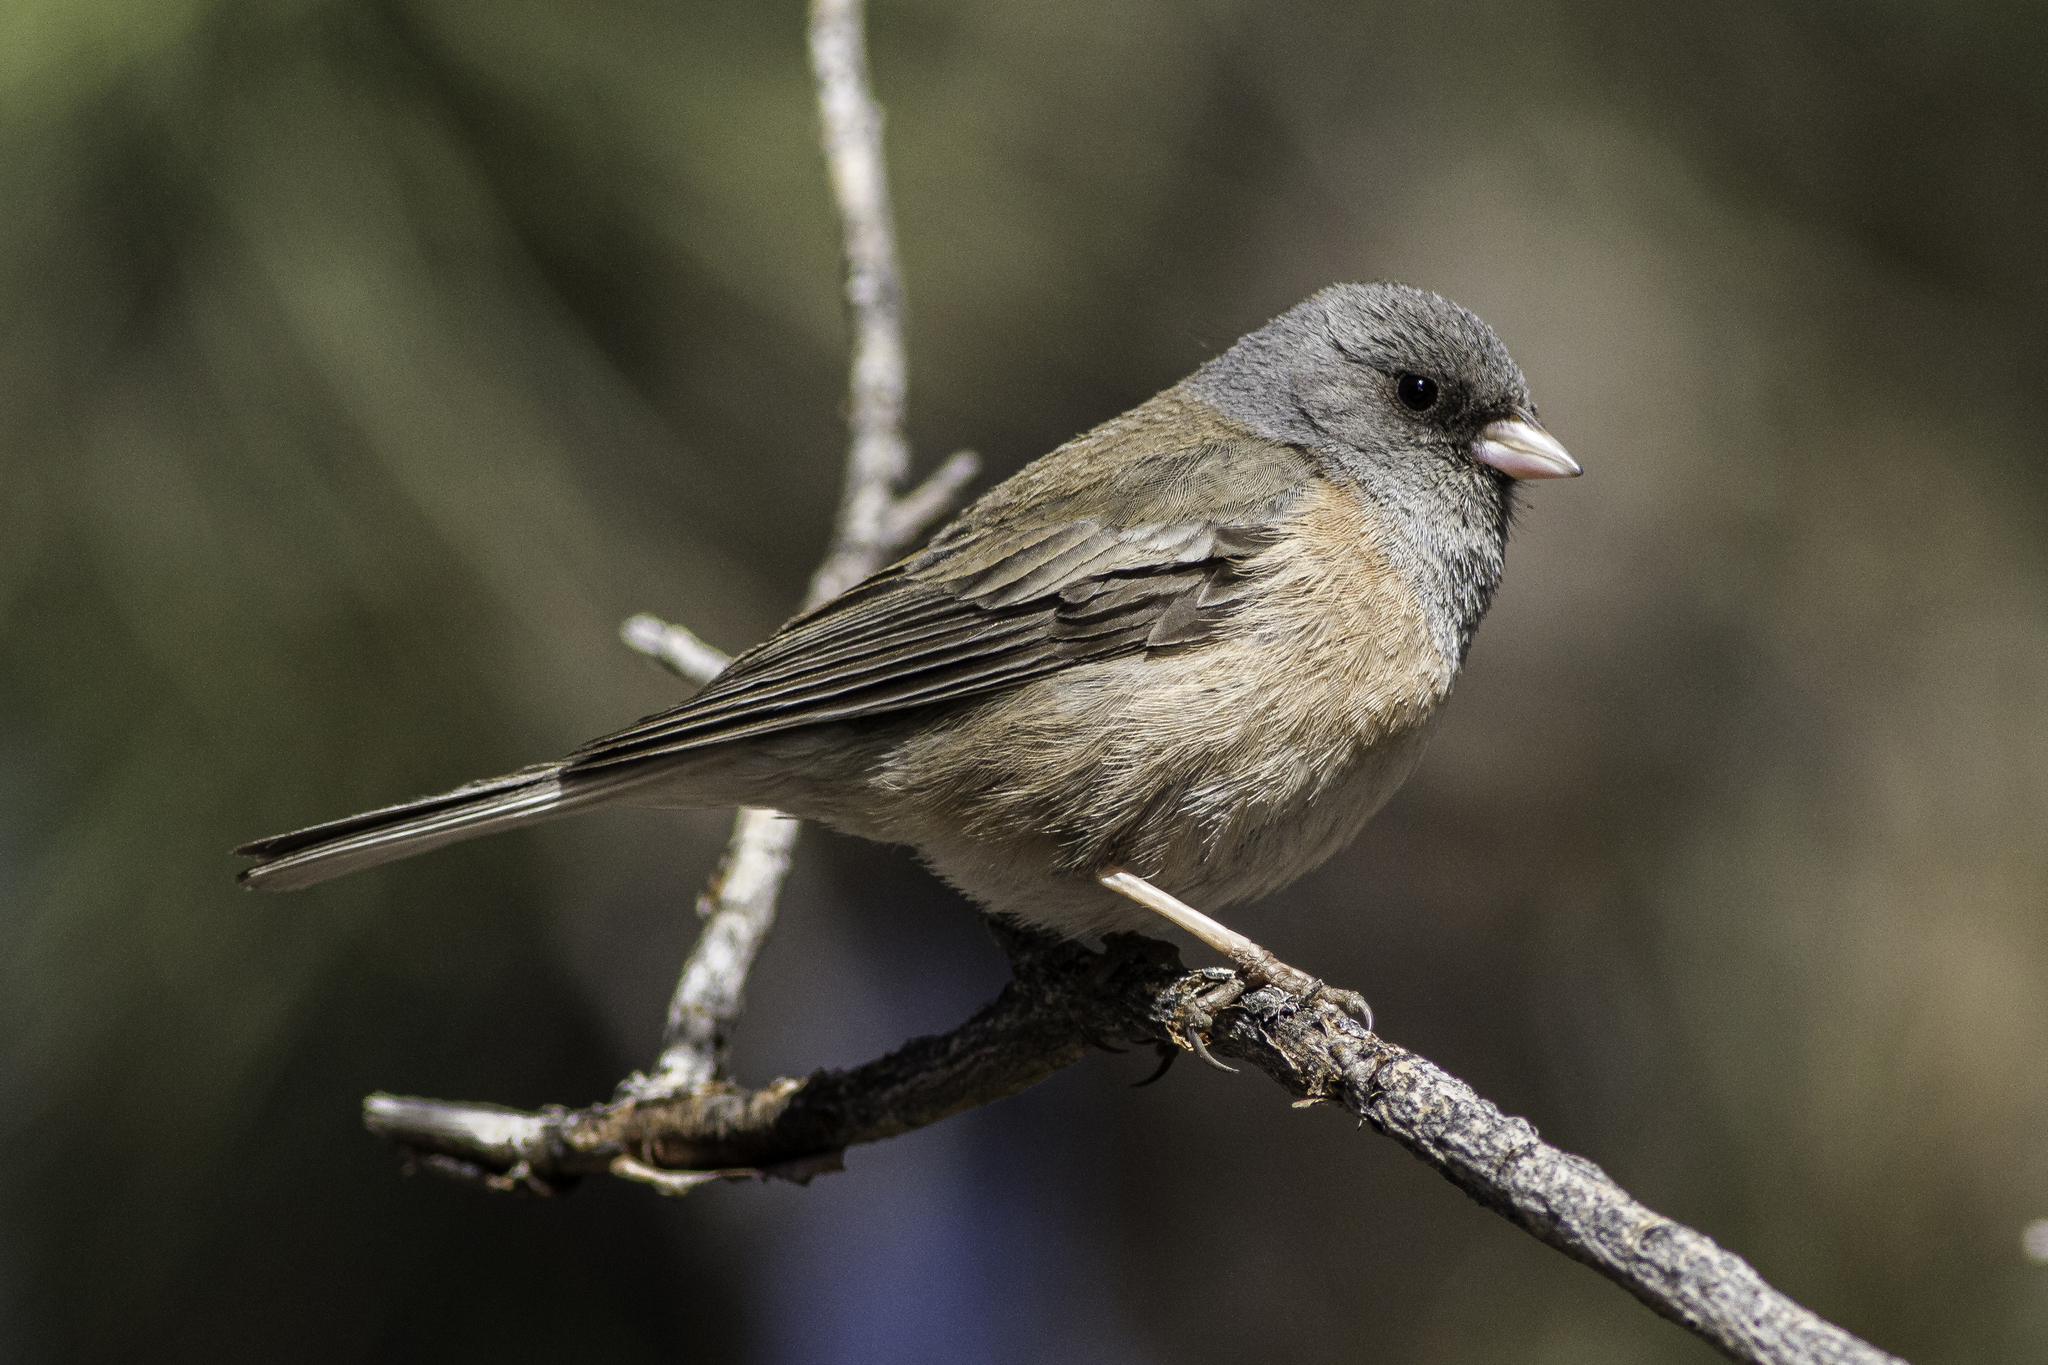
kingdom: Animalia
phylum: Chordata
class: Aves
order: Passeriformes
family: Passerellidae
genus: Junco
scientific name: Junco hyemalis
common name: Dark-eyed junco
